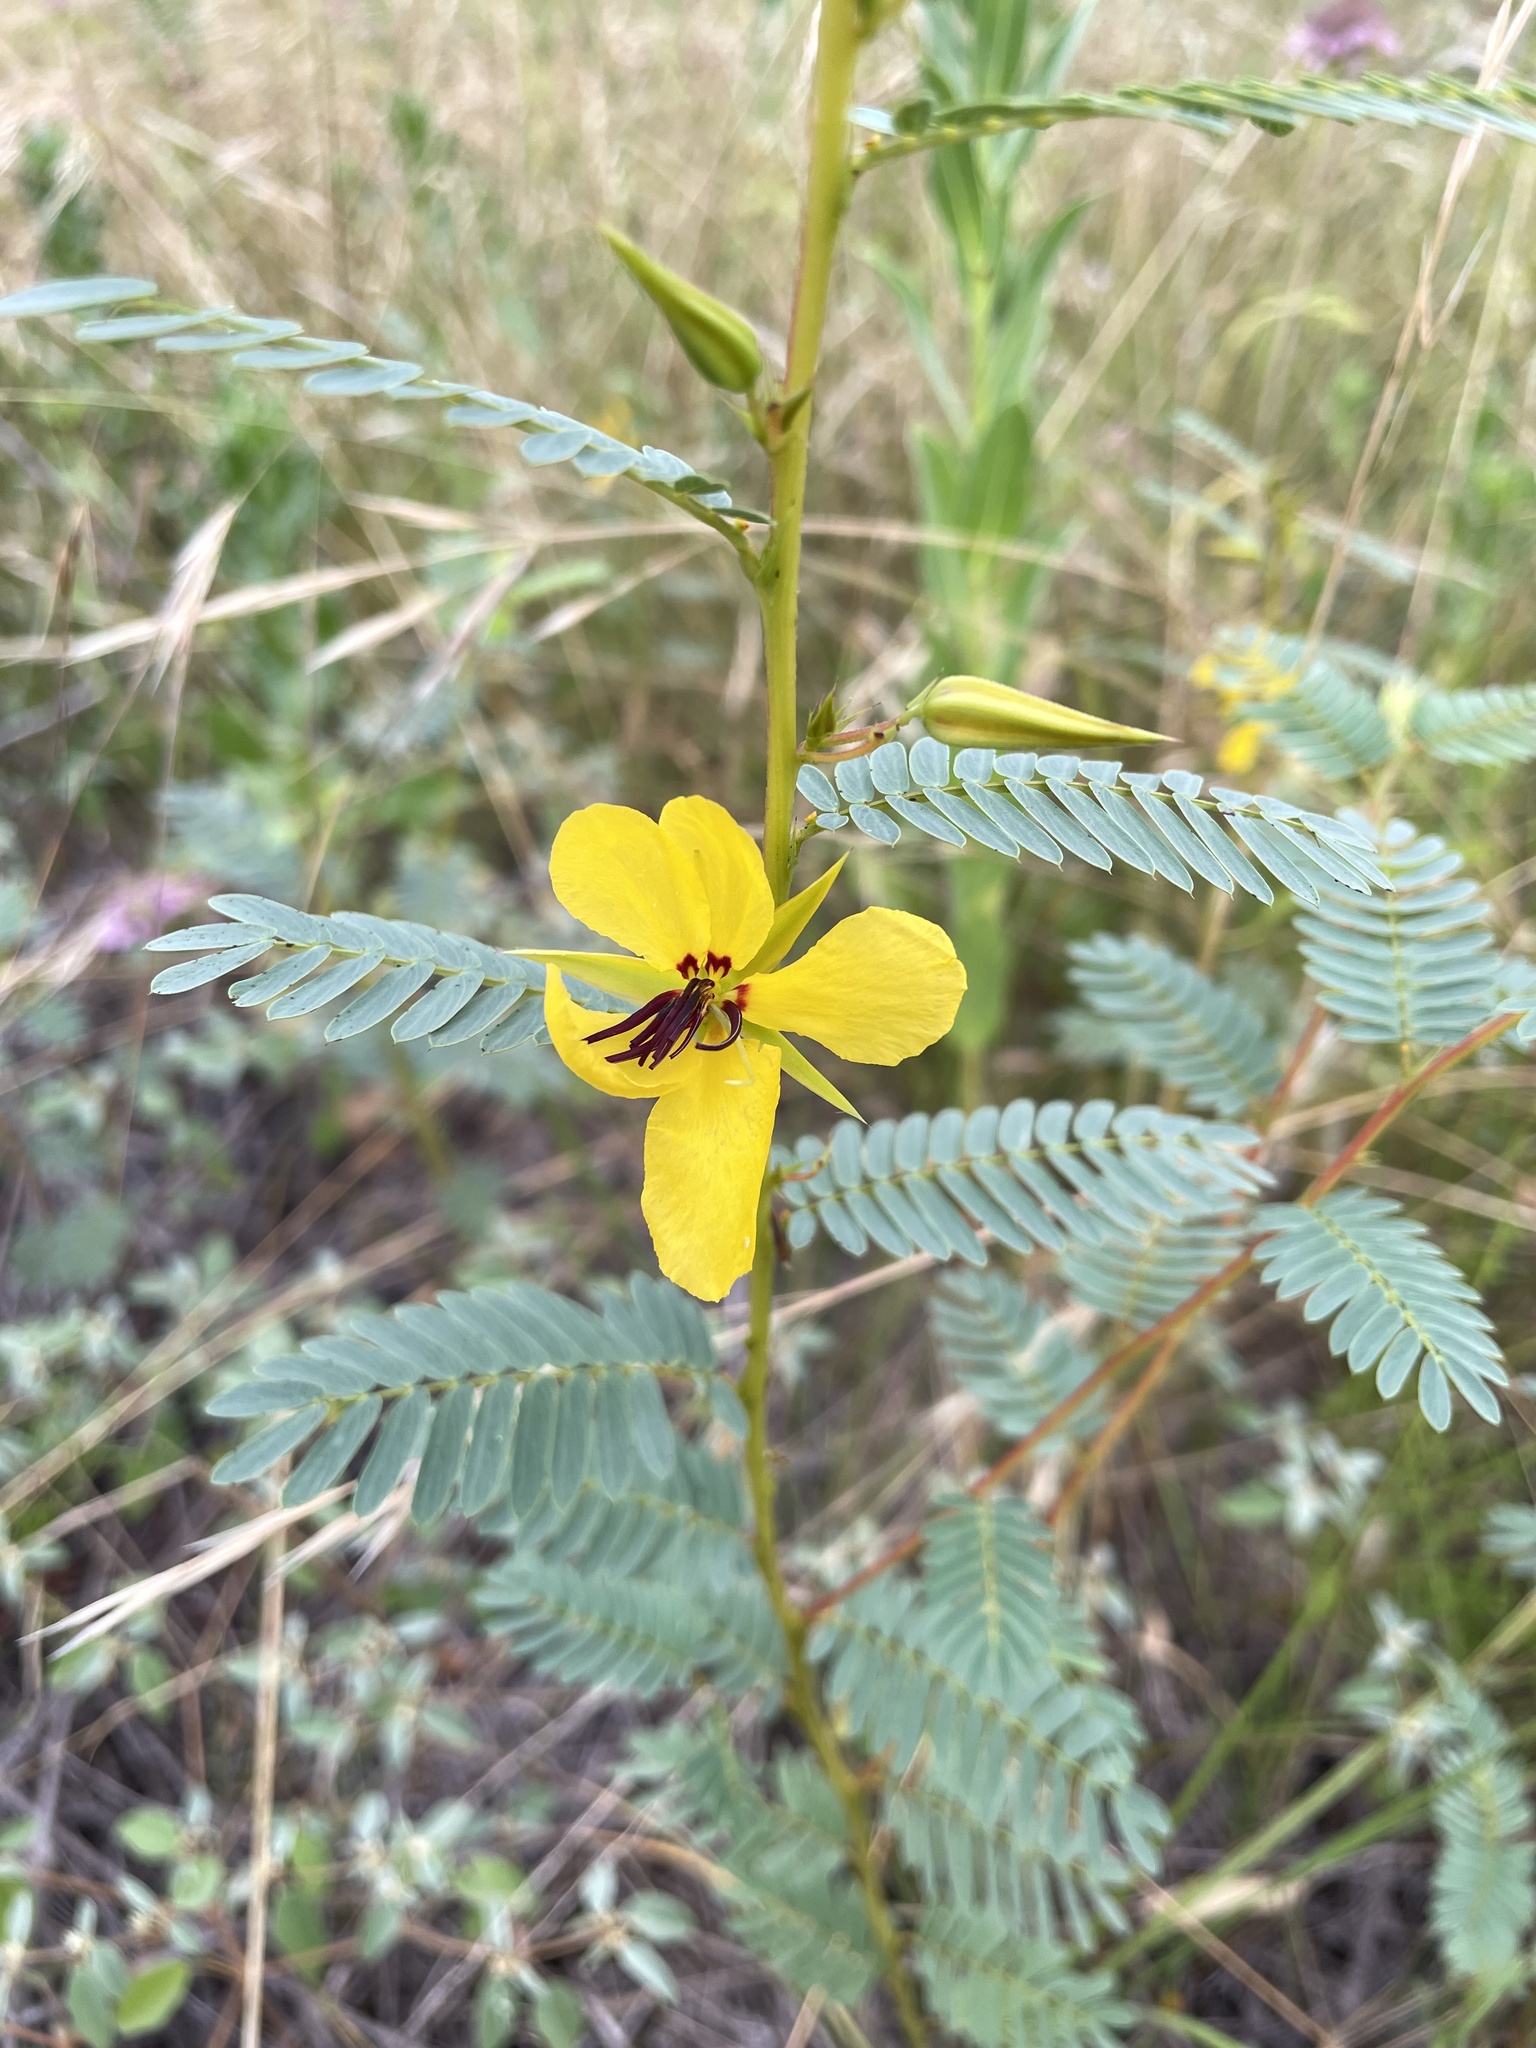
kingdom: Plantae
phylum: Tracheophyta
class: Magnoliopsida
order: Fabales
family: Fabaceae
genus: Chamaecrista
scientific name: Chamaecrista fasciculata
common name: Golden cassia
